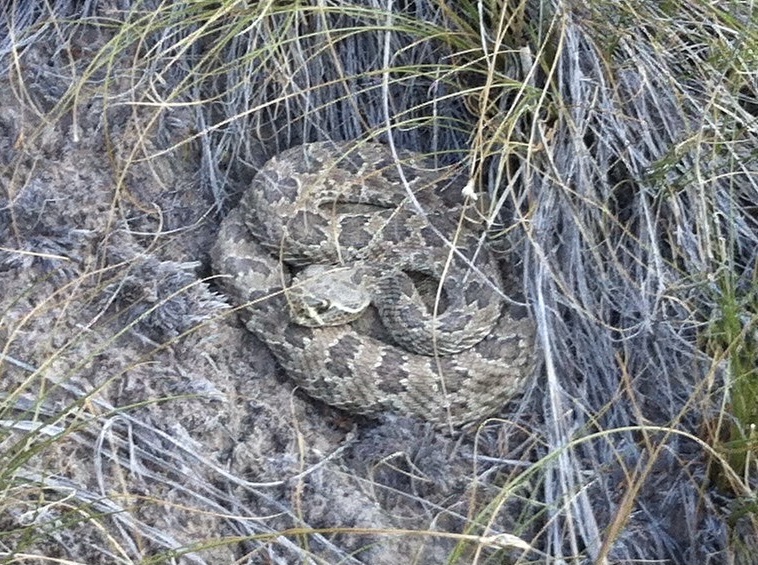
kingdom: Animalia
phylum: Chordata
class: Squamata
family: Viperidae
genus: Crotalus
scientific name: Crotalus viridis
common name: Prairie rattlesnake
